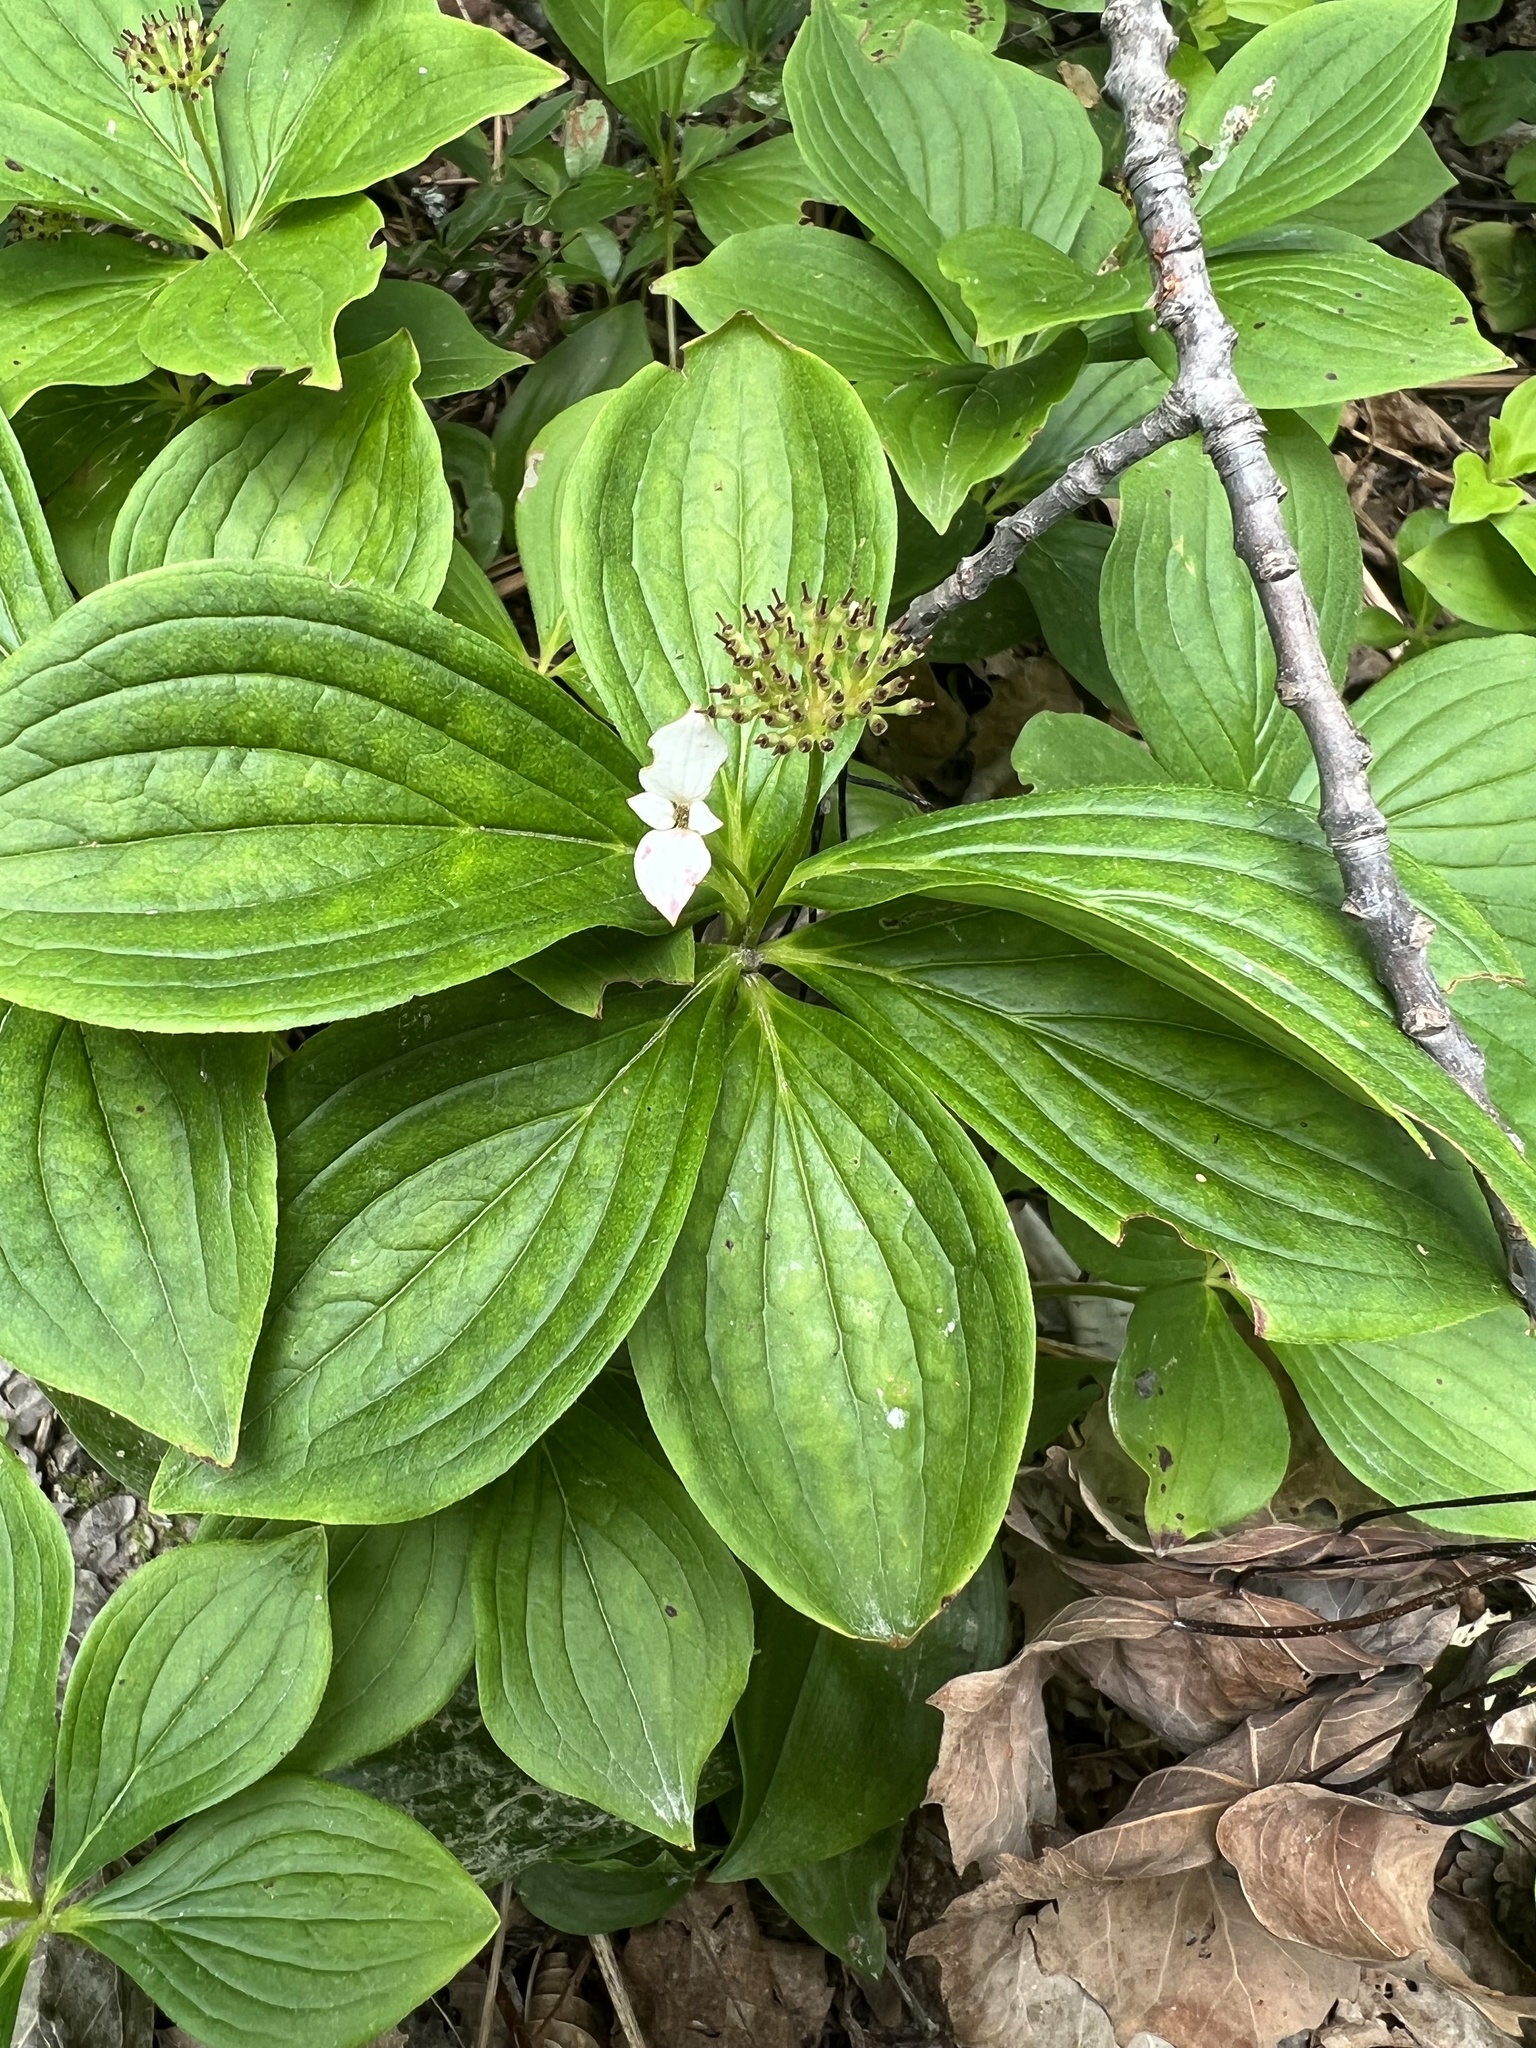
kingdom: Plantae
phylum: Tracheophyta
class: Magnoliopsida
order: Cornales
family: Cornaceae
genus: Cornus
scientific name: Cornus canadensis
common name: Creeping dogwood
